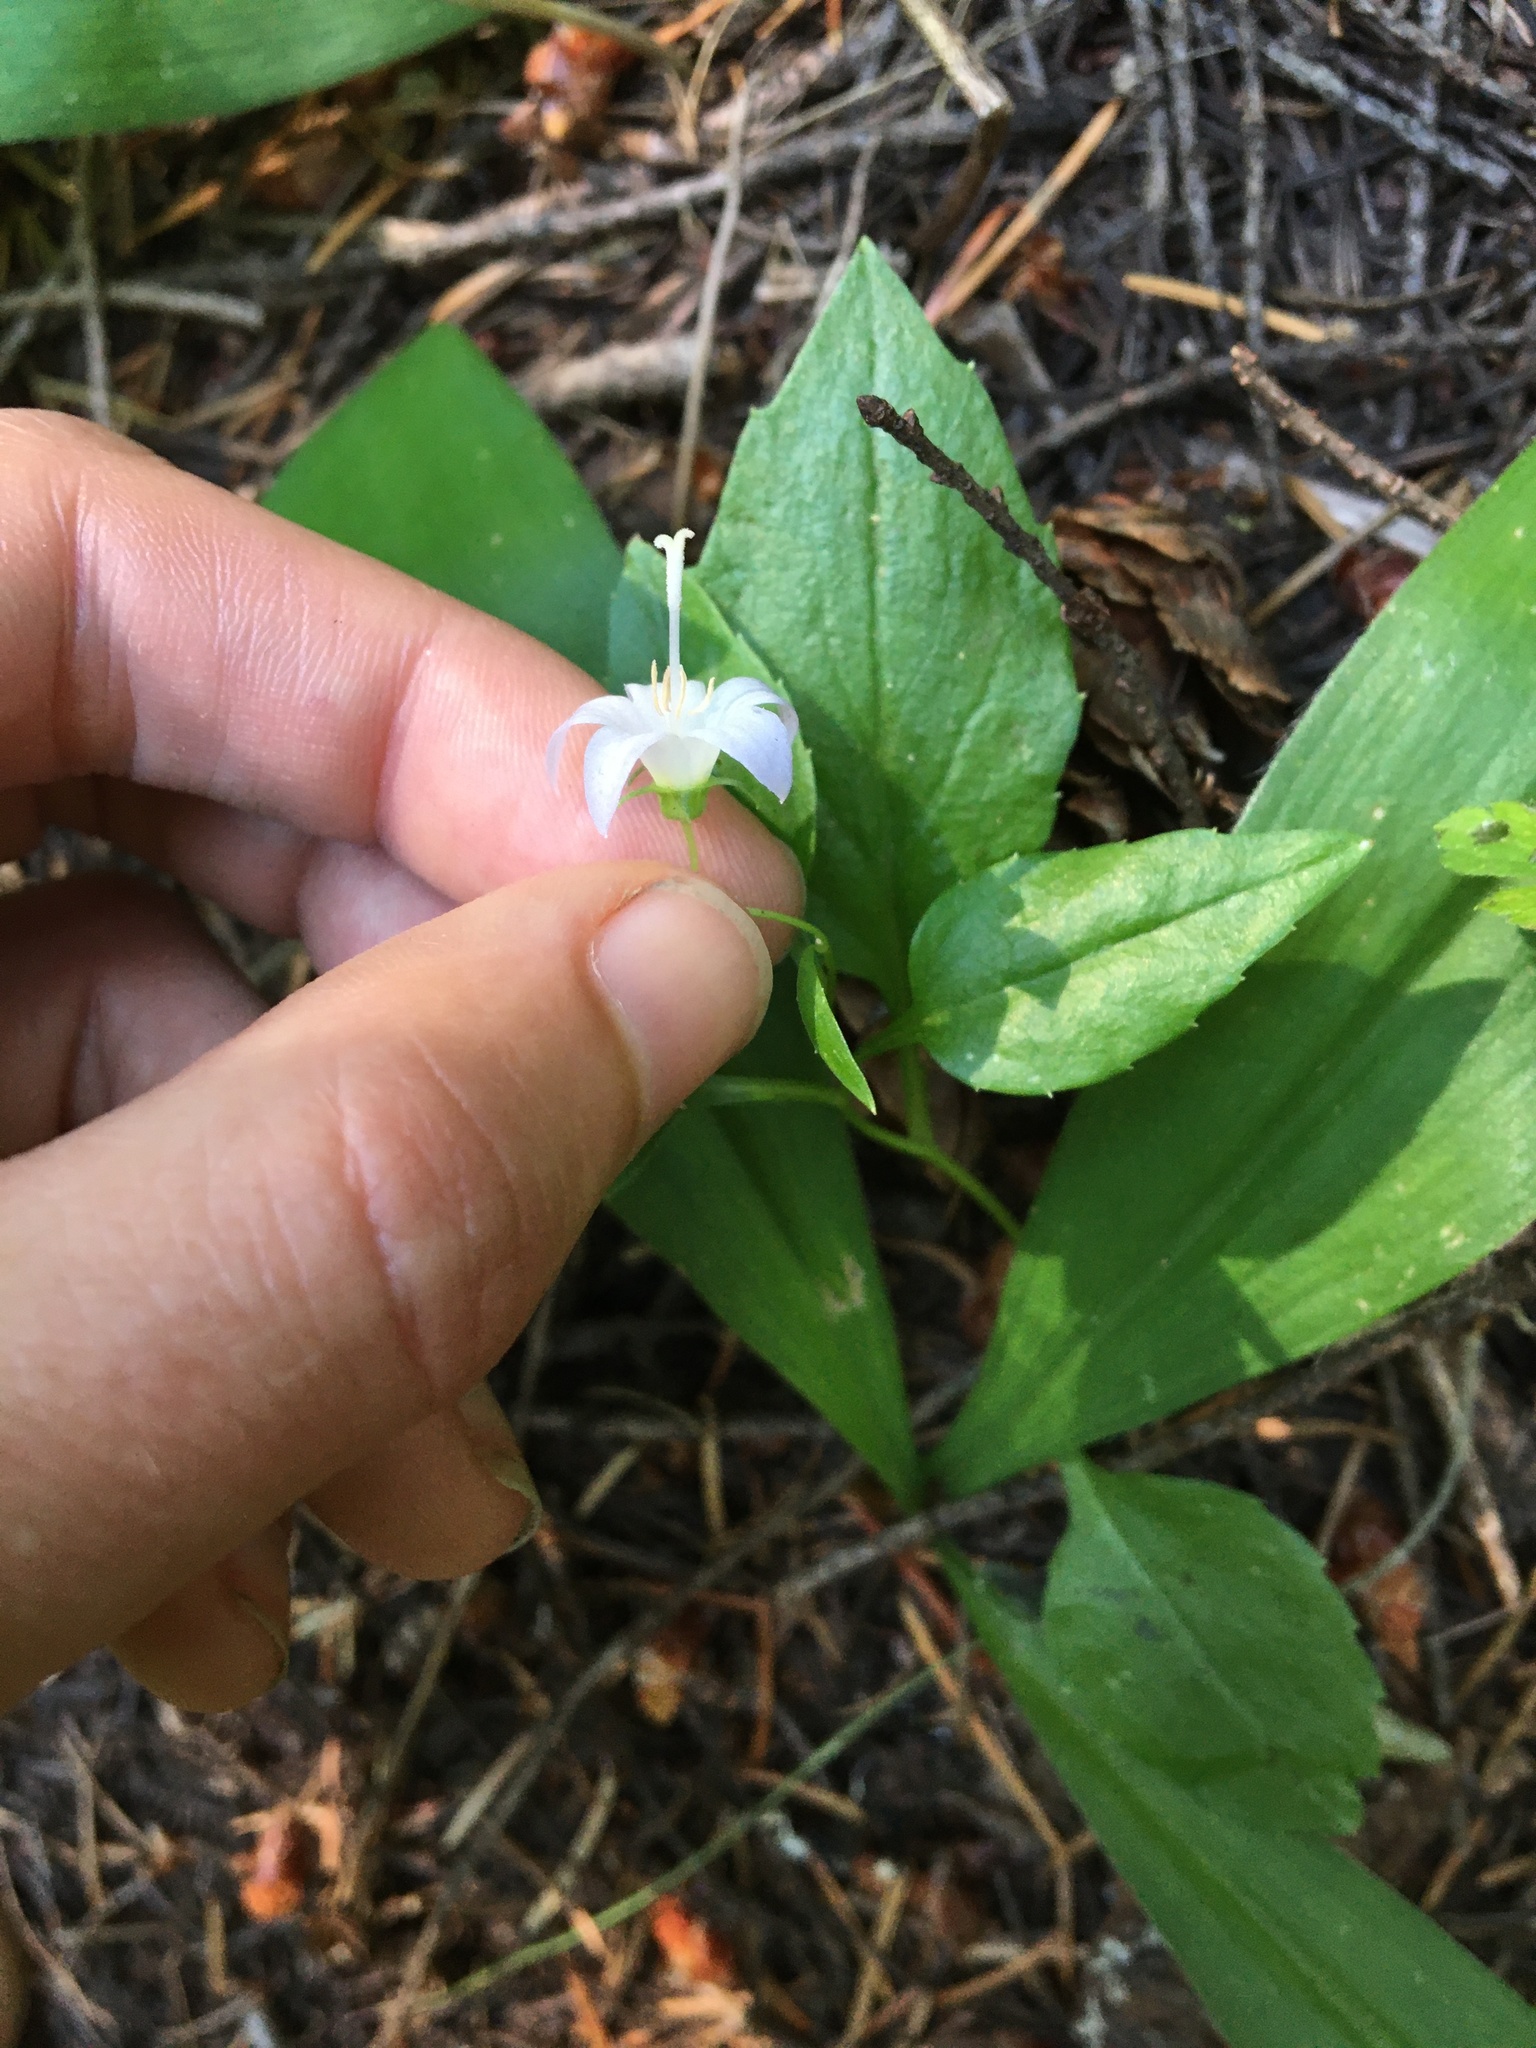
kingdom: Plantae
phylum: Tracheophyta
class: Magnoliopsida
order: Asterales
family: Campanulaceae
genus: Campanula
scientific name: Campanula scouleri
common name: Scouler's harebell
